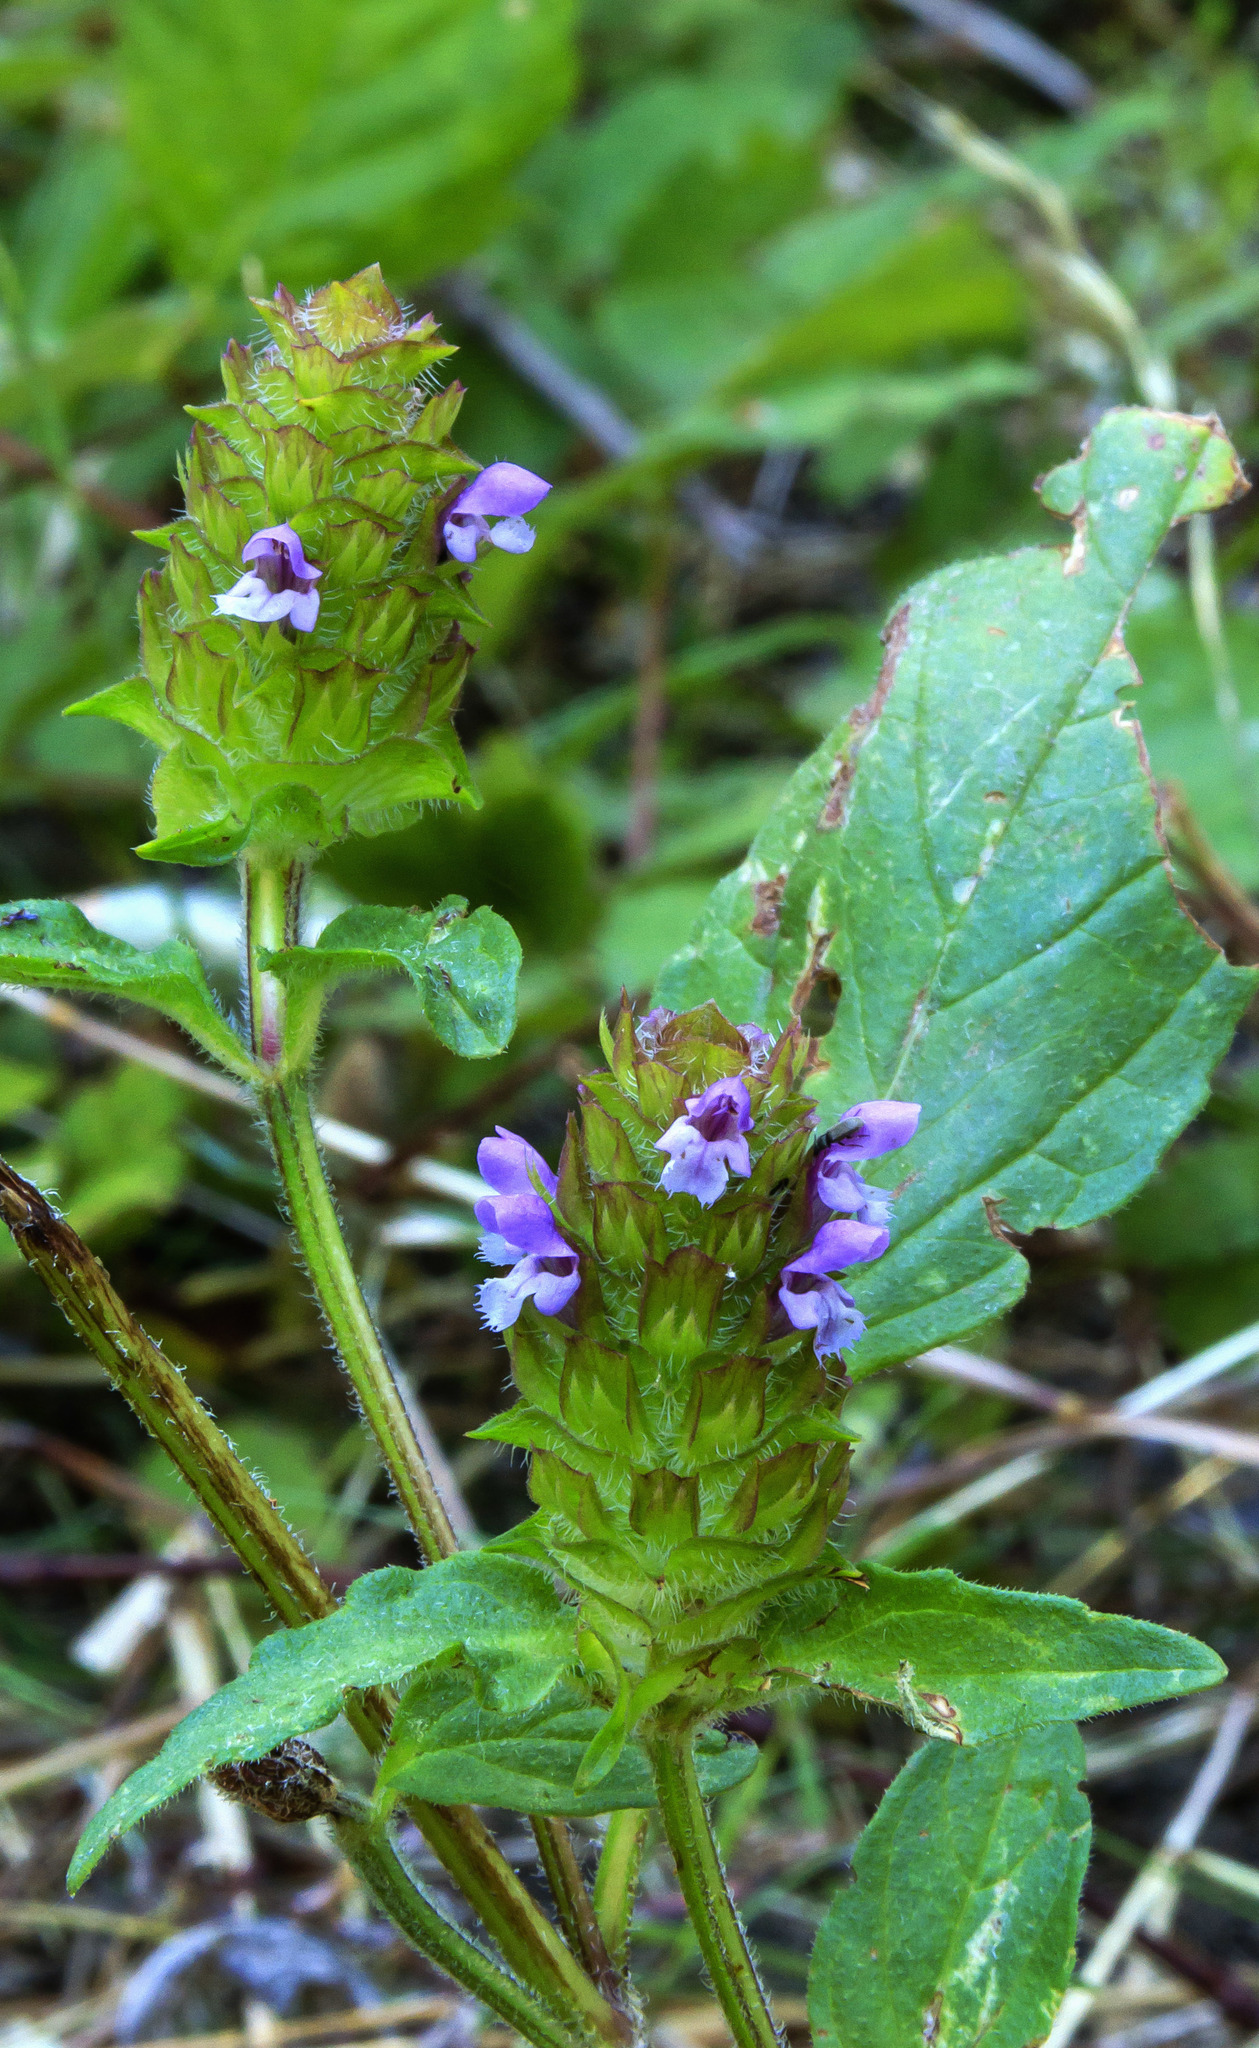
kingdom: Plantae
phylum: Tracheophyta
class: Magnoliopsida
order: Lamiales
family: Lamiaceae
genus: Prunella
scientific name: Prunella vulgaris
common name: Heal-all
